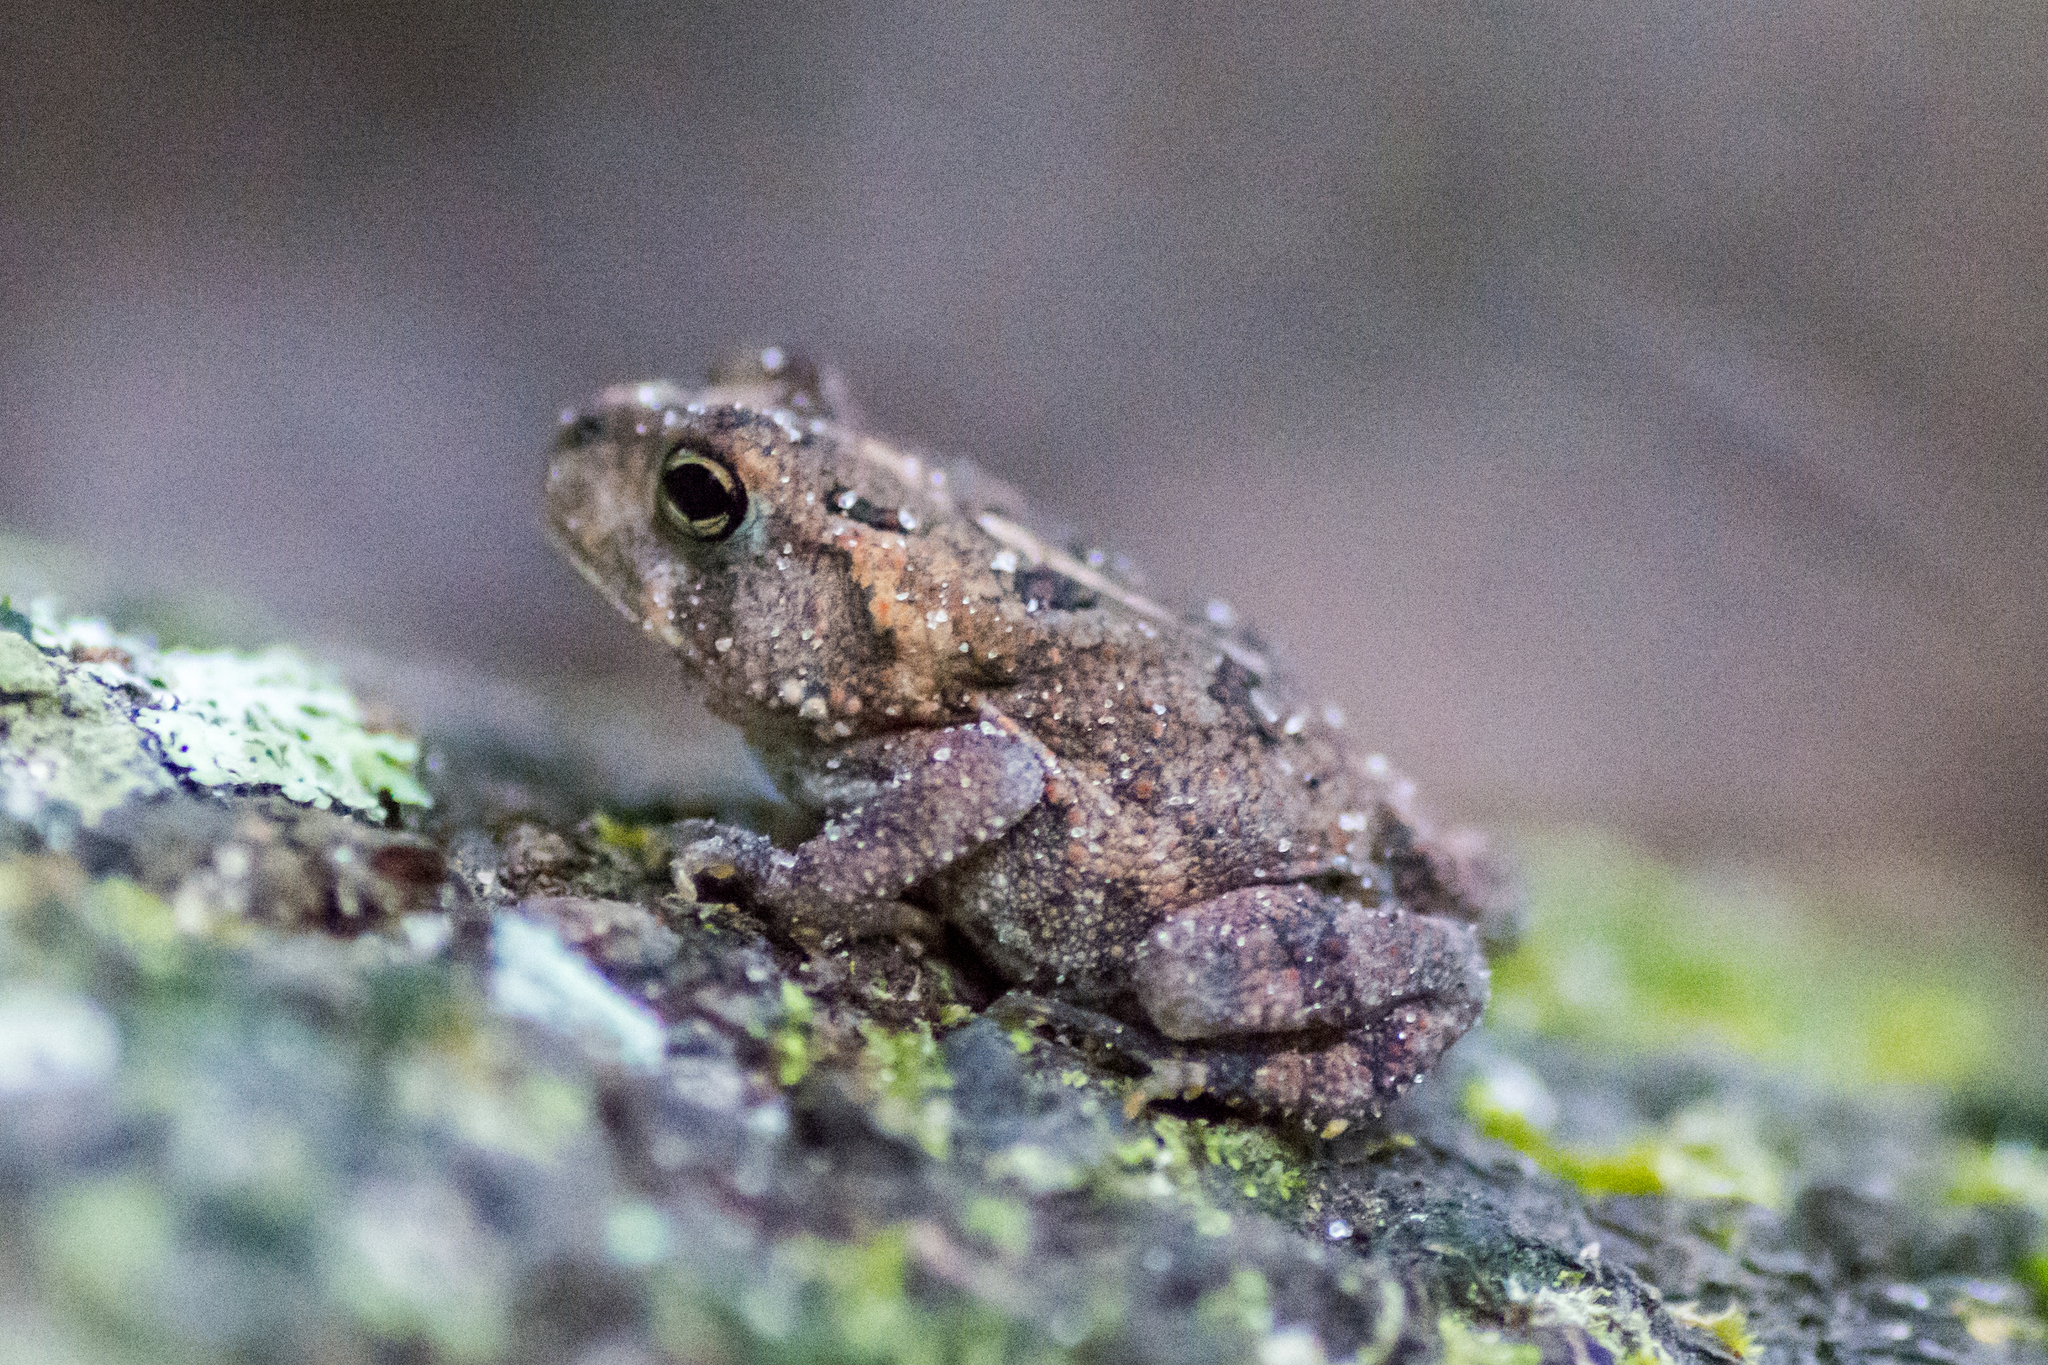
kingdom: Animalia
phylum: Chordata
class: Amphibia
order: Anura
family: Bufonidae
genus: Anaxyrus
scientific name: Anaxyrus terrestris
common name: Southern toad
